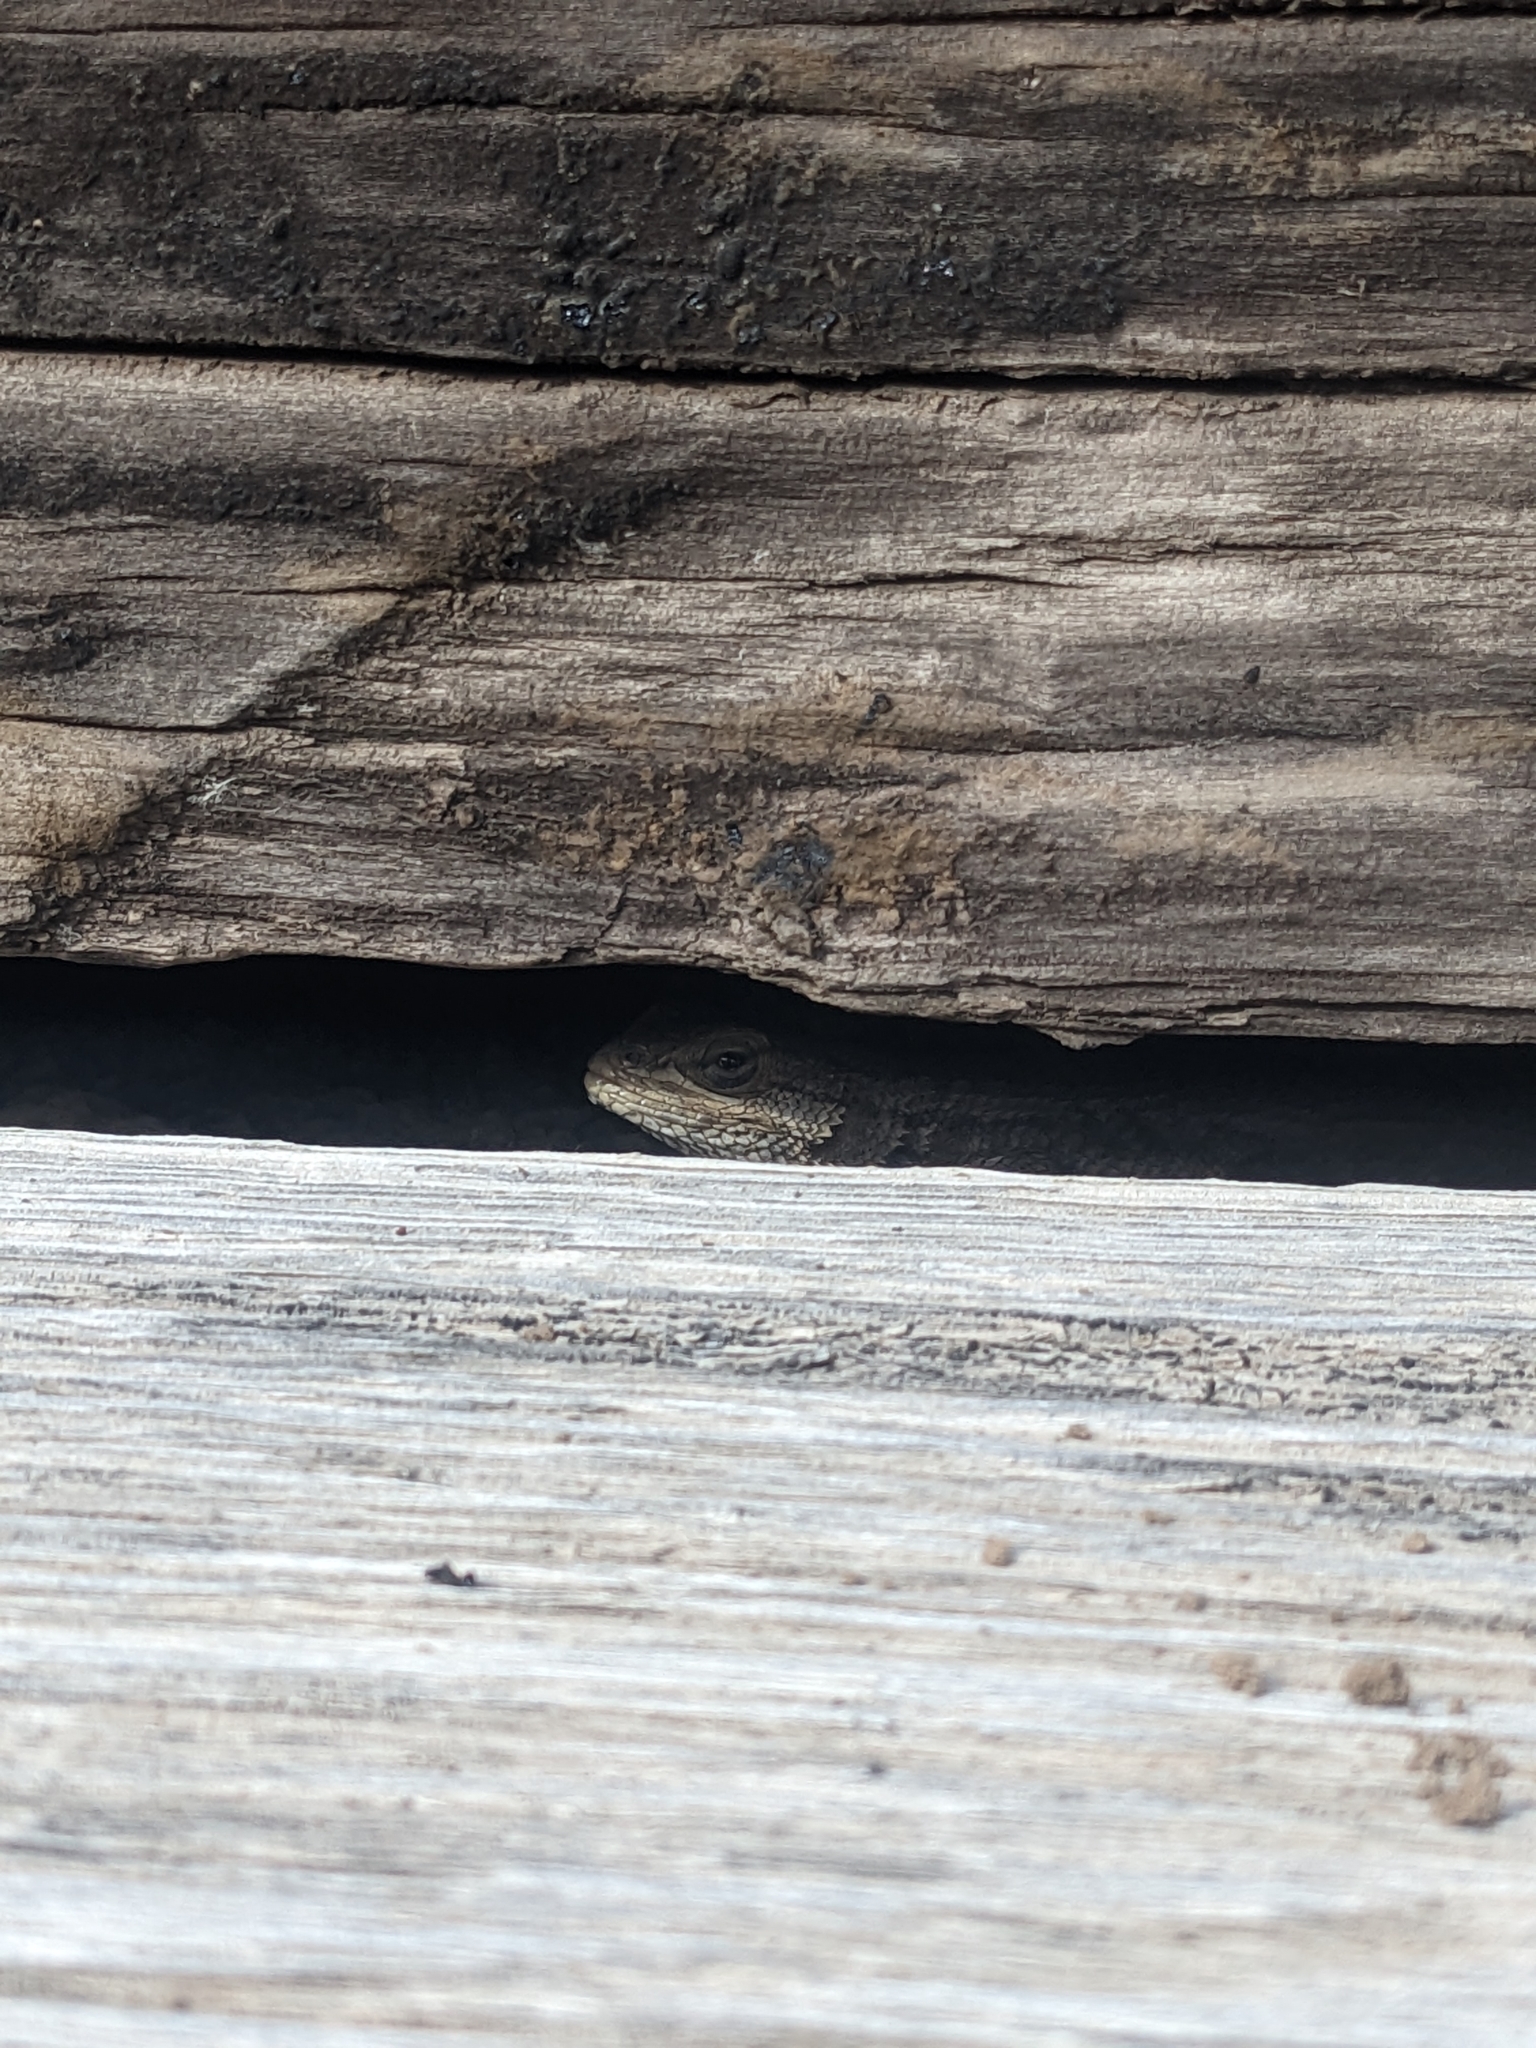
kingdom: Animalia
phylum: Chordata
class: Squamata
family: Phrynosomatidae
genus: Sceloporus
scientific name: Sceloporus cowlesi
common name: White sands prairie lizard
